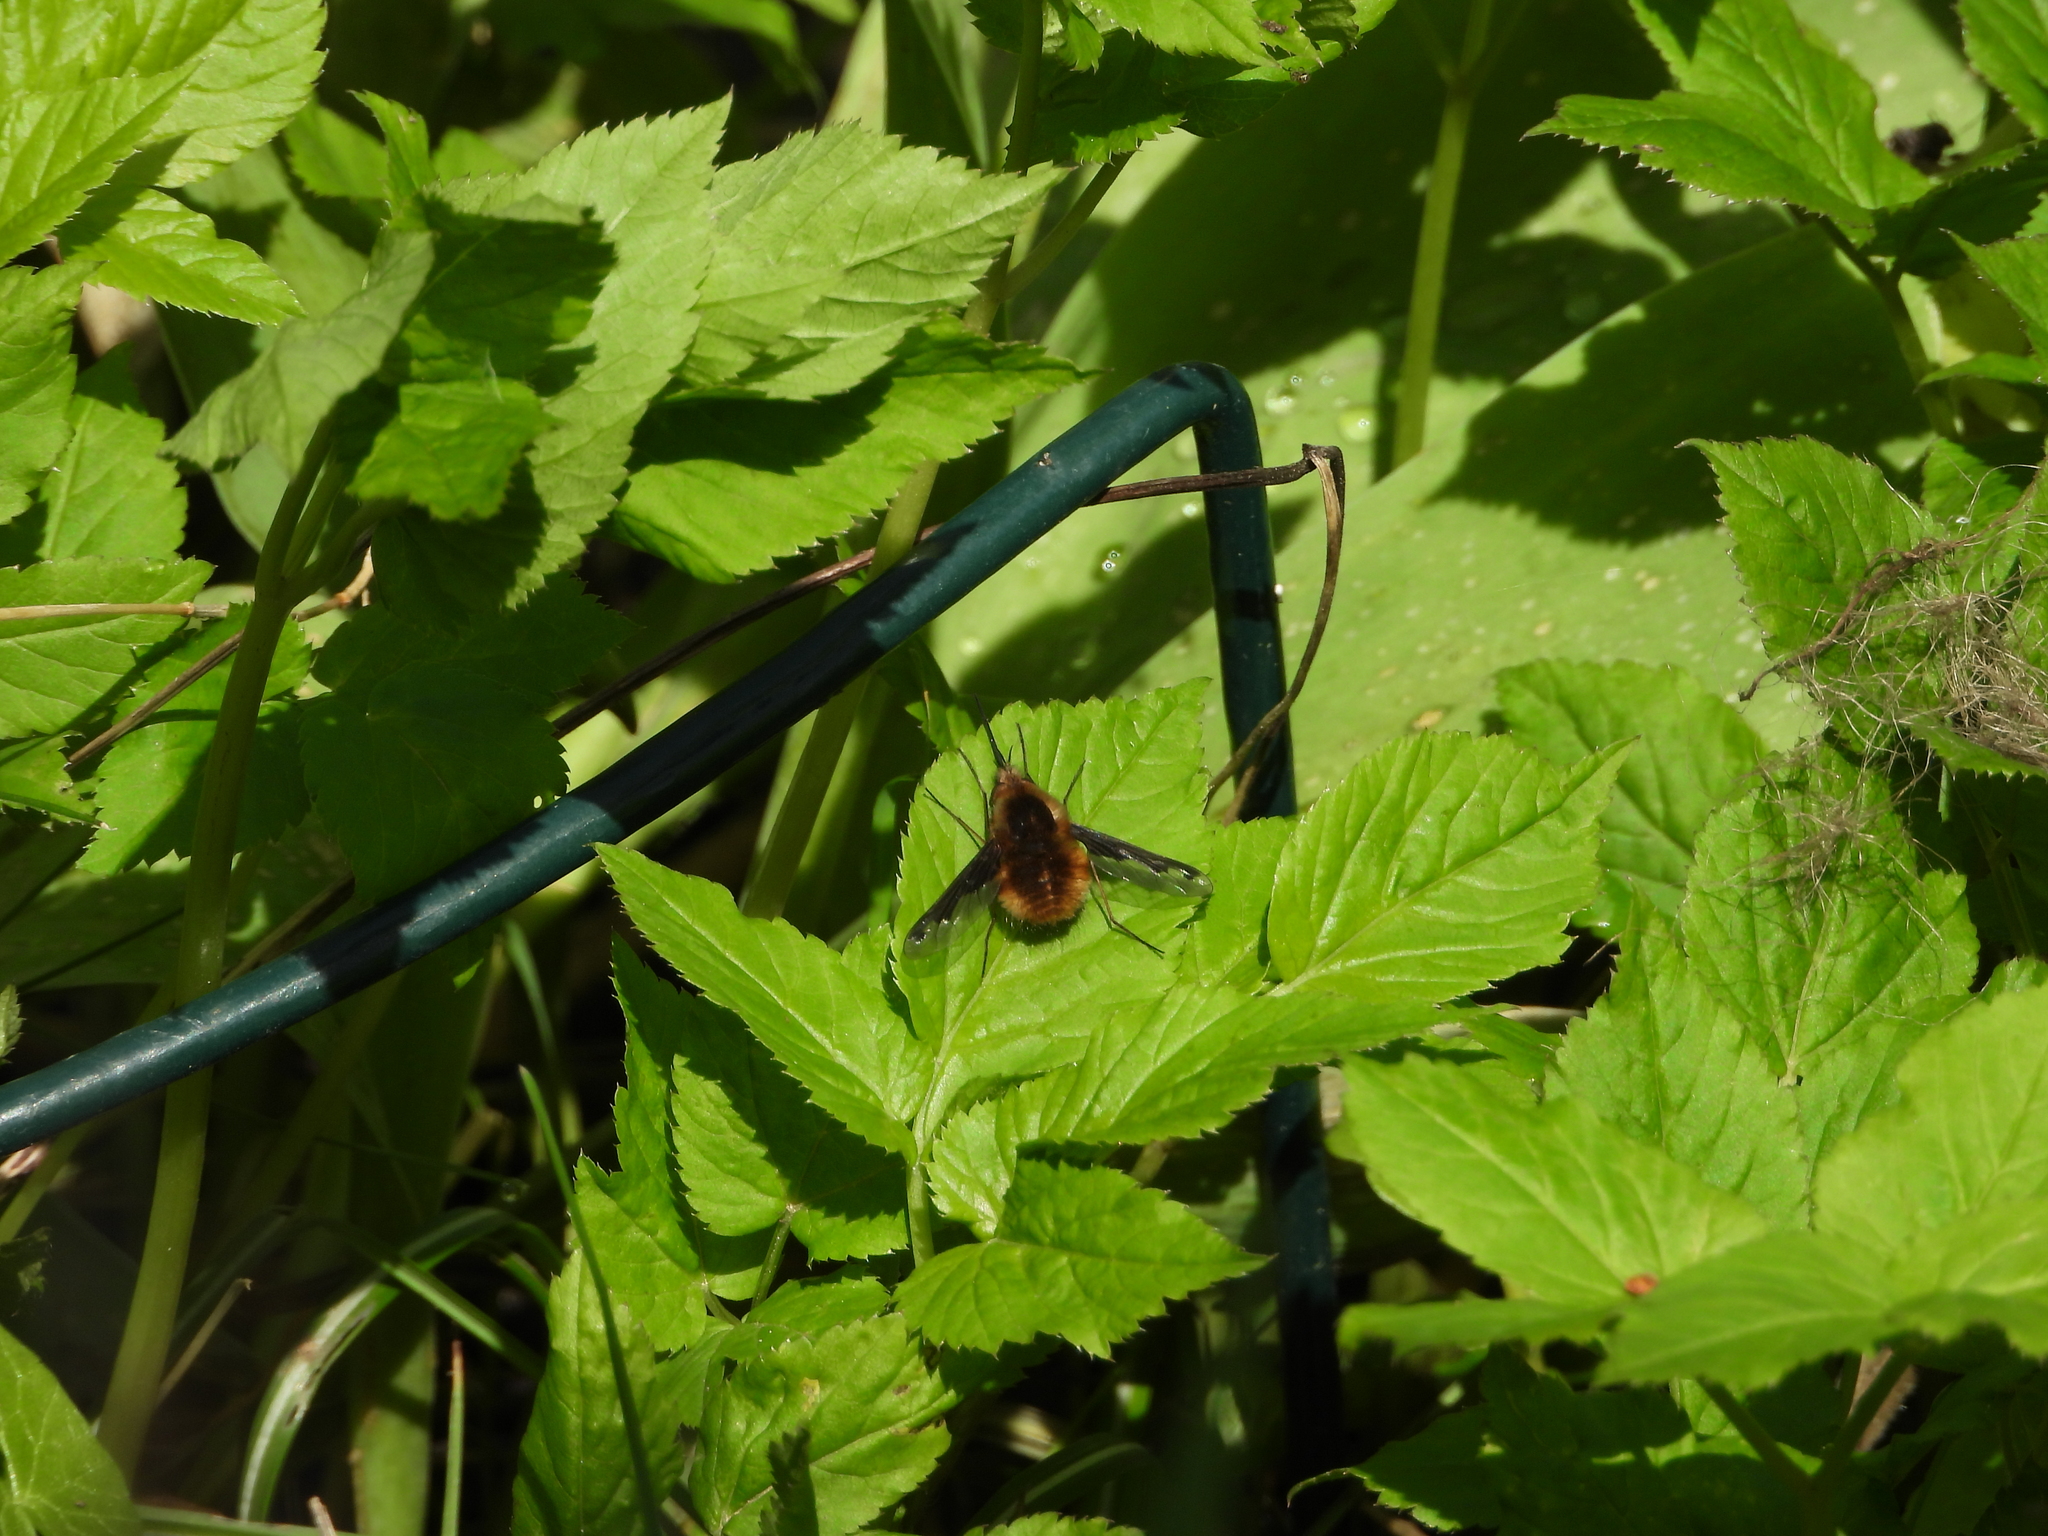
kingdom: Animalia
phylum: Arthropoda
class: Insecta
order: Diptera
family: Bombyliidae
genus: Bombylius
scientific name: Bombylius major
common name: Bee fly
